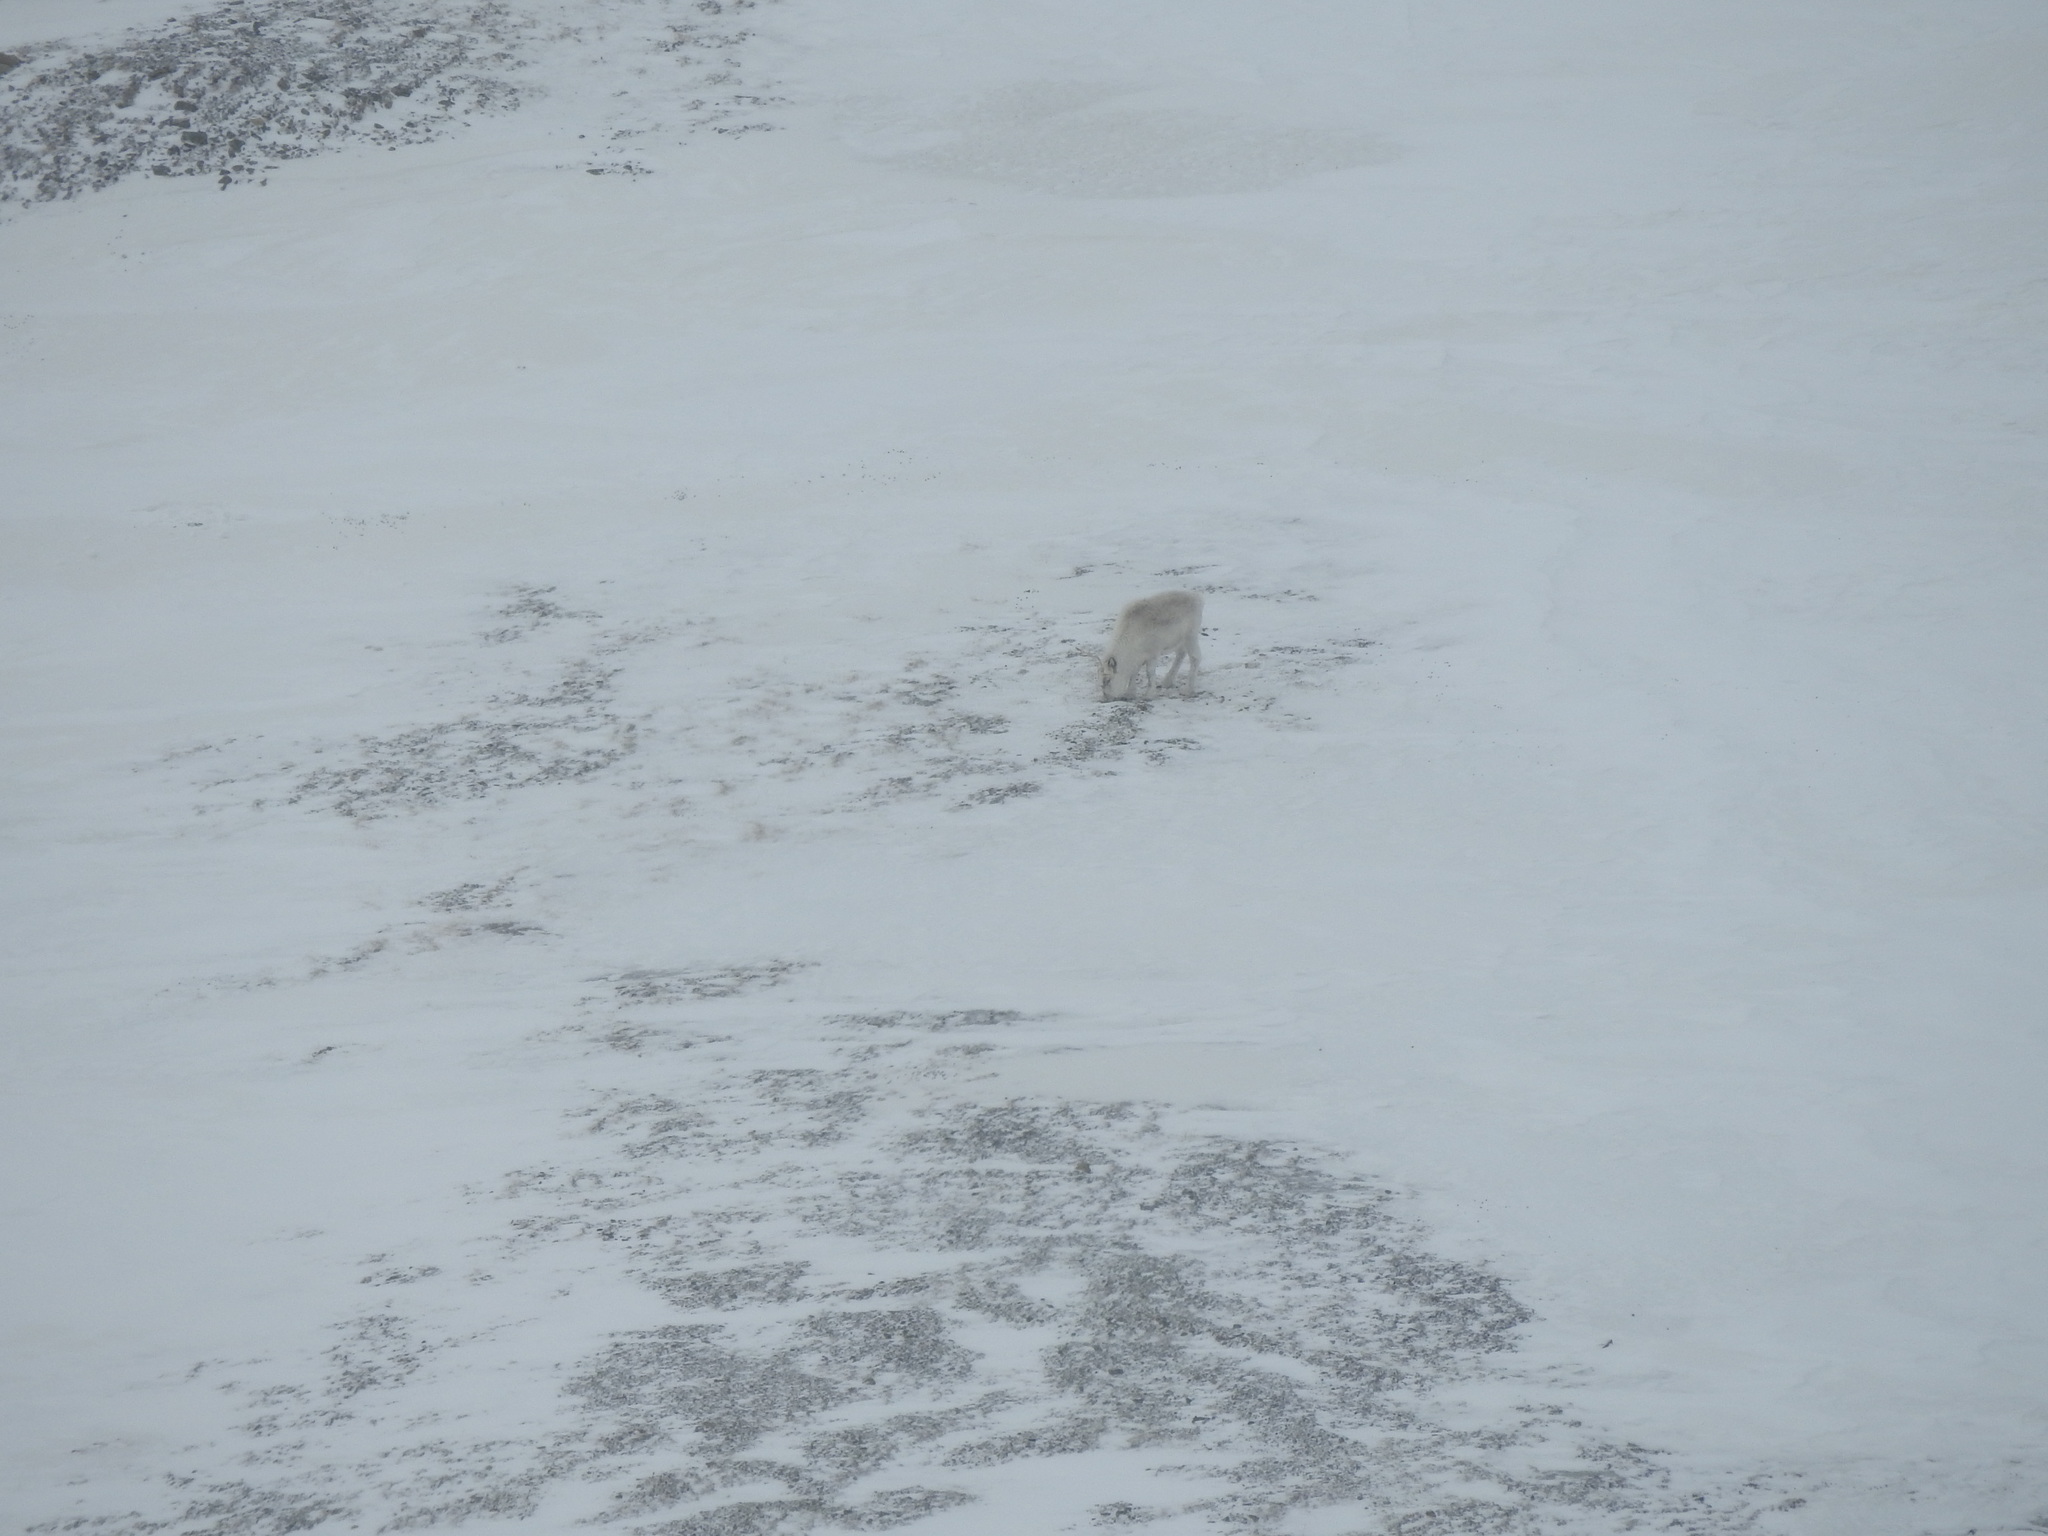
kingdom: Animalia
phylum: Chordata
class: Mammalia
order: Artiodactyla
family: Cervidae
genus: Rangifer
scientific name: Rangifer tarandus
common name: Reindeer
